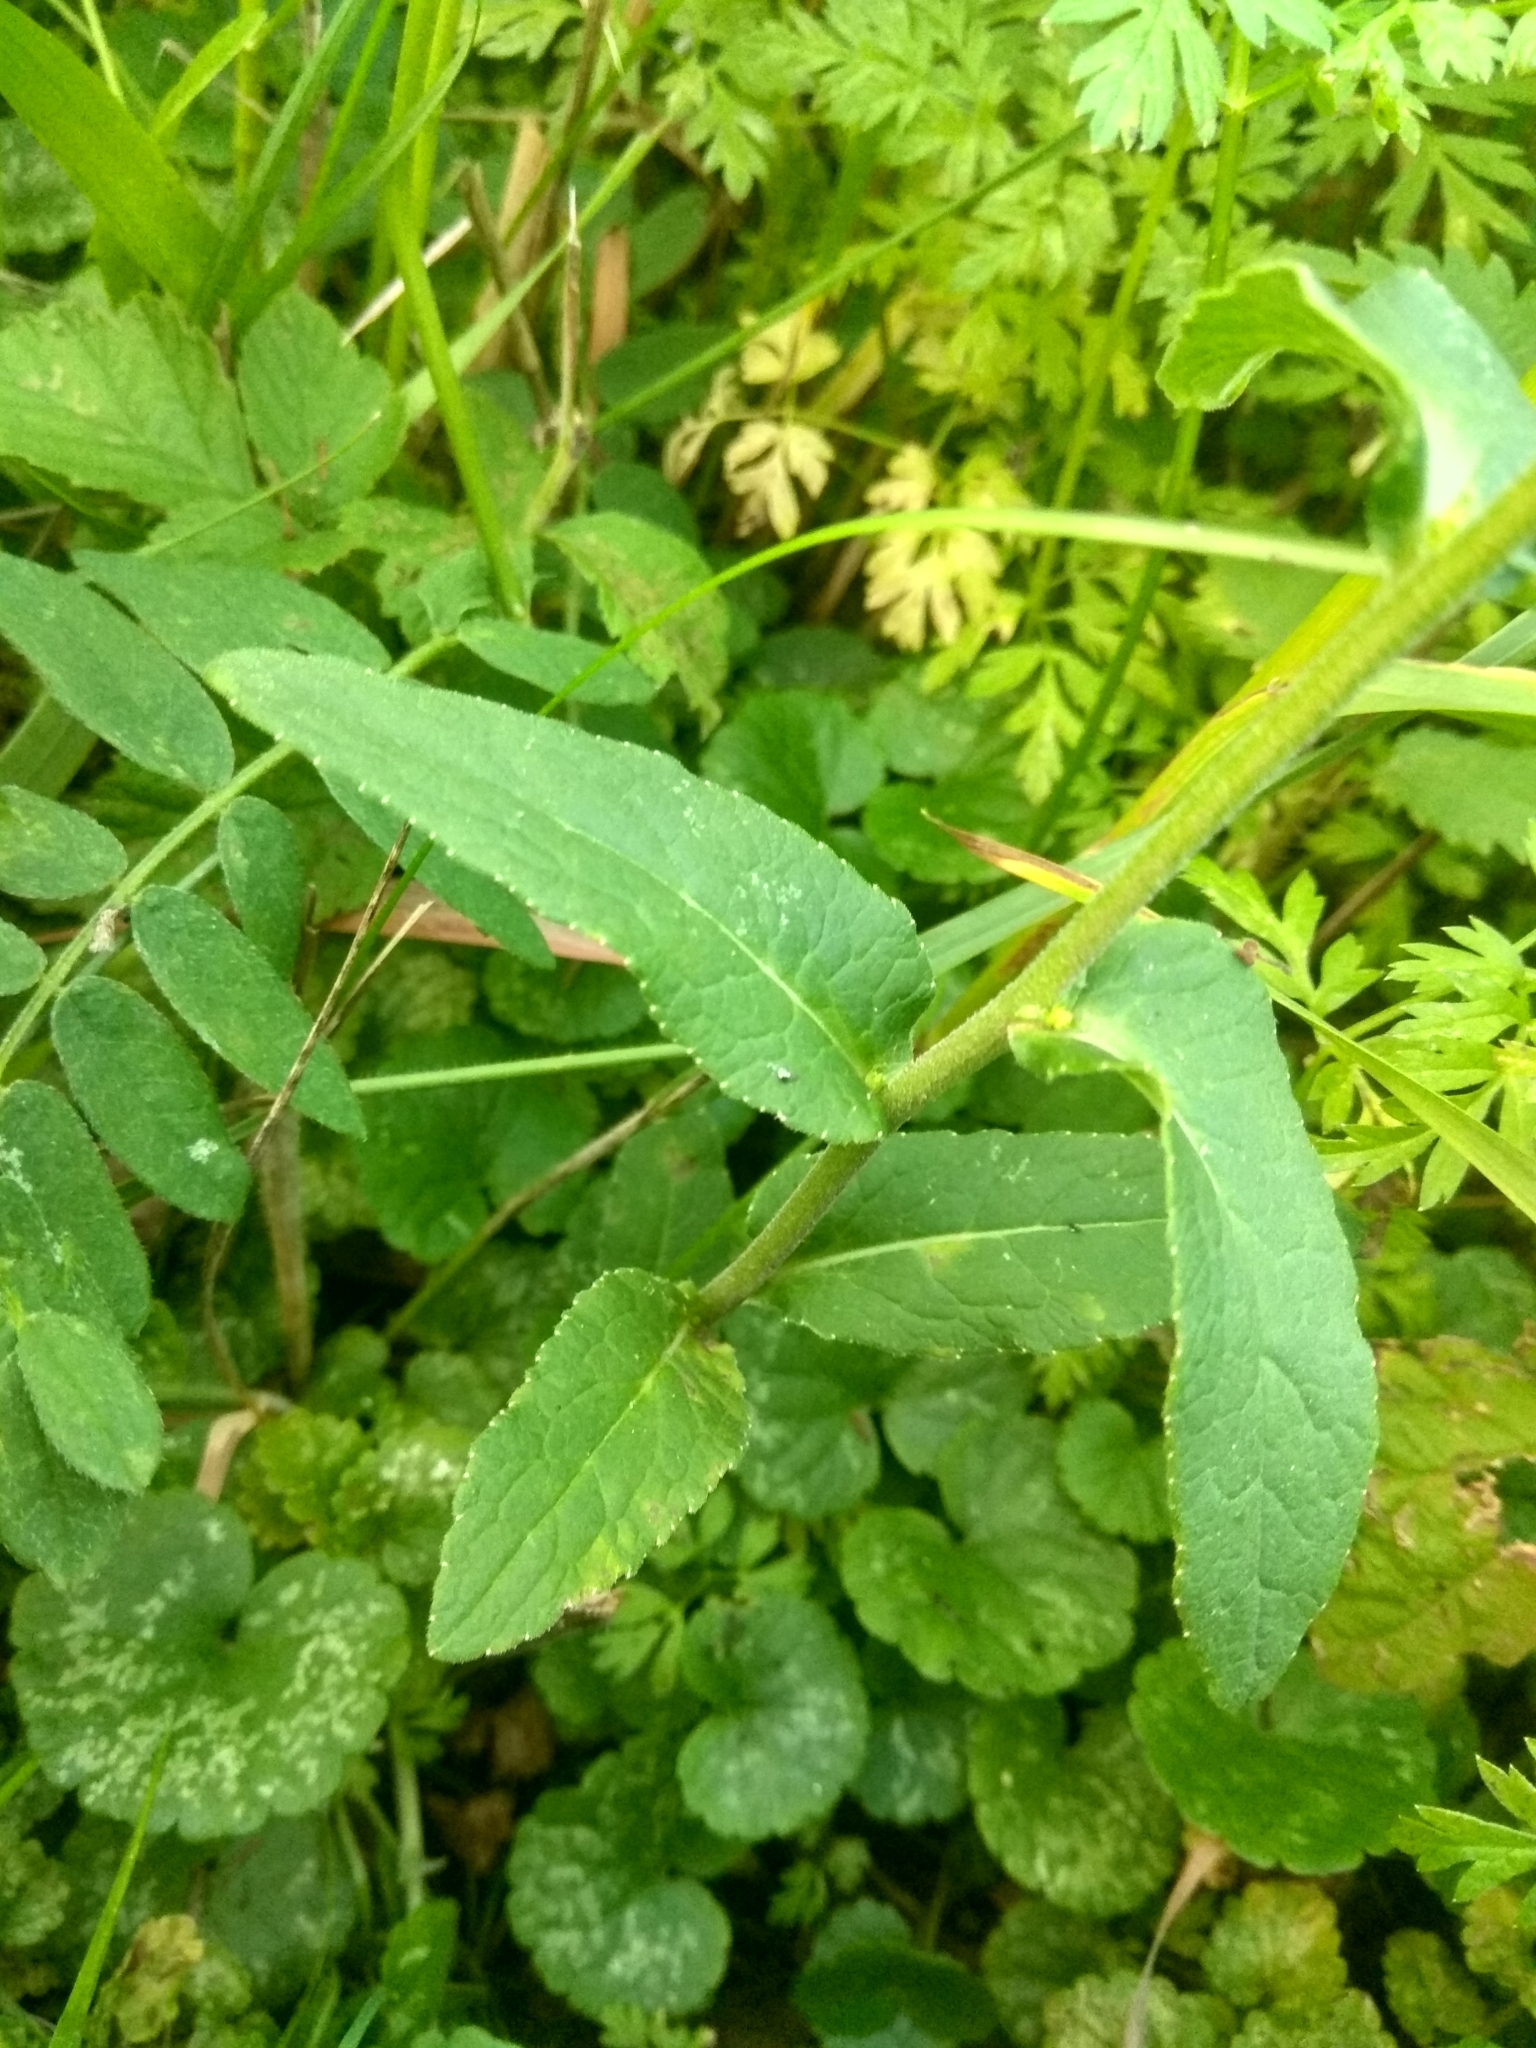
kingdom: Plantae
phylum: Tracheophyta
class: Magnoliopsida
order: Asterales
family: Campanulaceae
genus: Campanula
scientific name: Campanula bononiensis
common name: Pale bellflower
